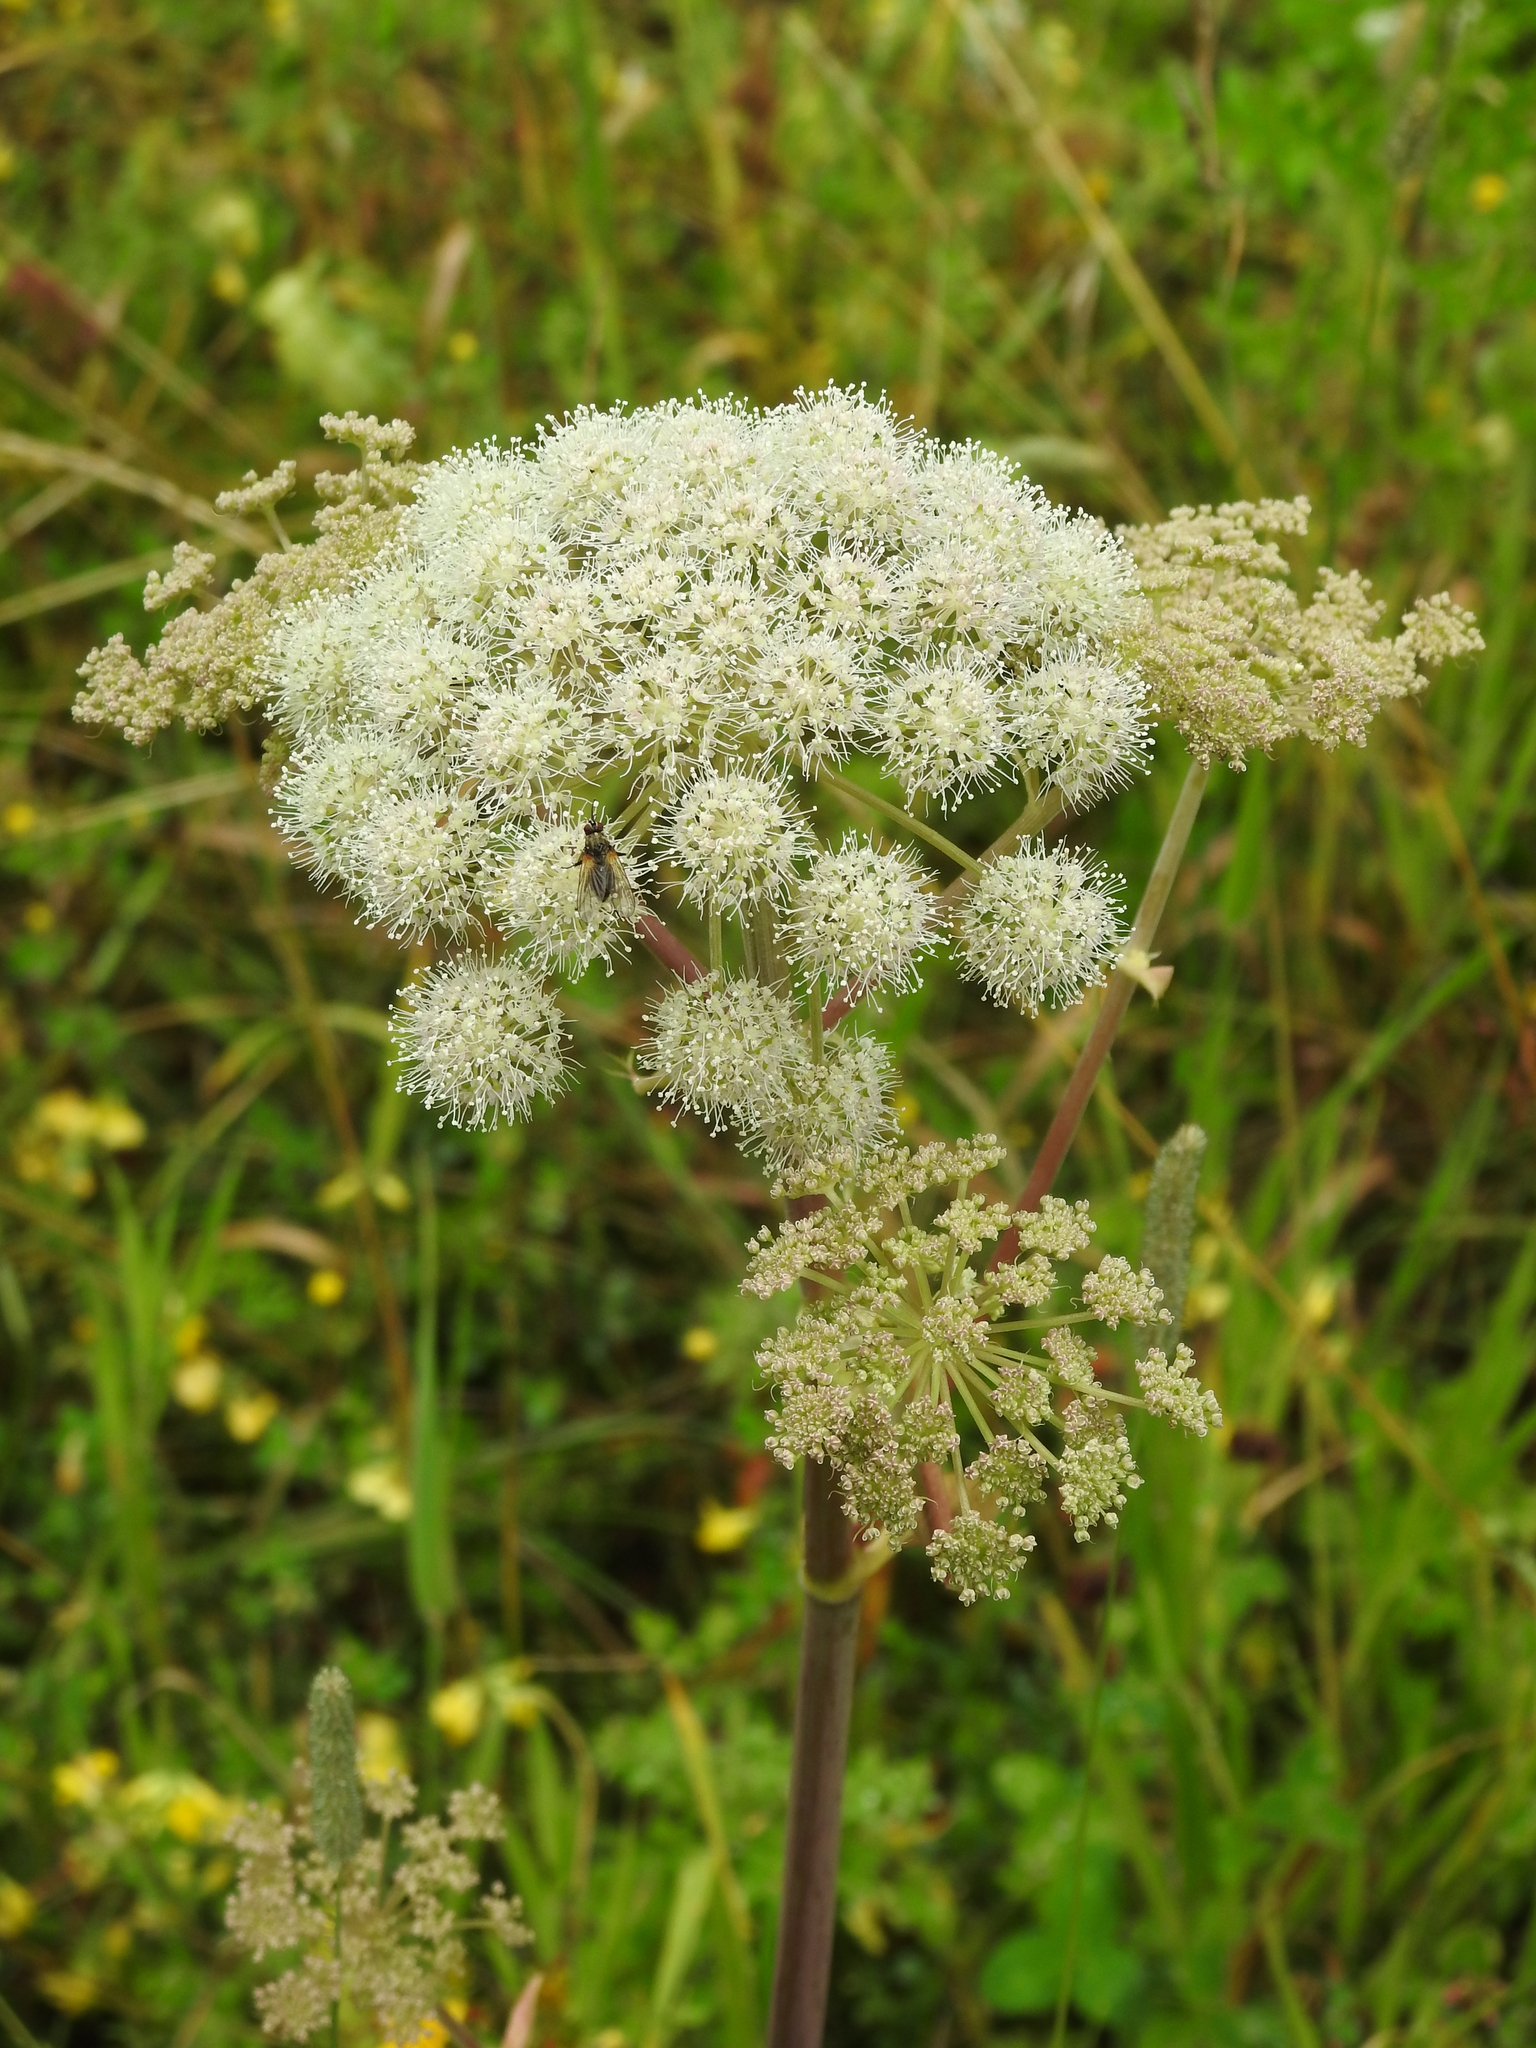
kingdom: Plantae
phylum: Tracheophyta
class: Magnoliopsida
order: Apiales
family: Apiaceae
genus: Angelica
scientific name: Angelica sylvestris
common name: Wild angelica
